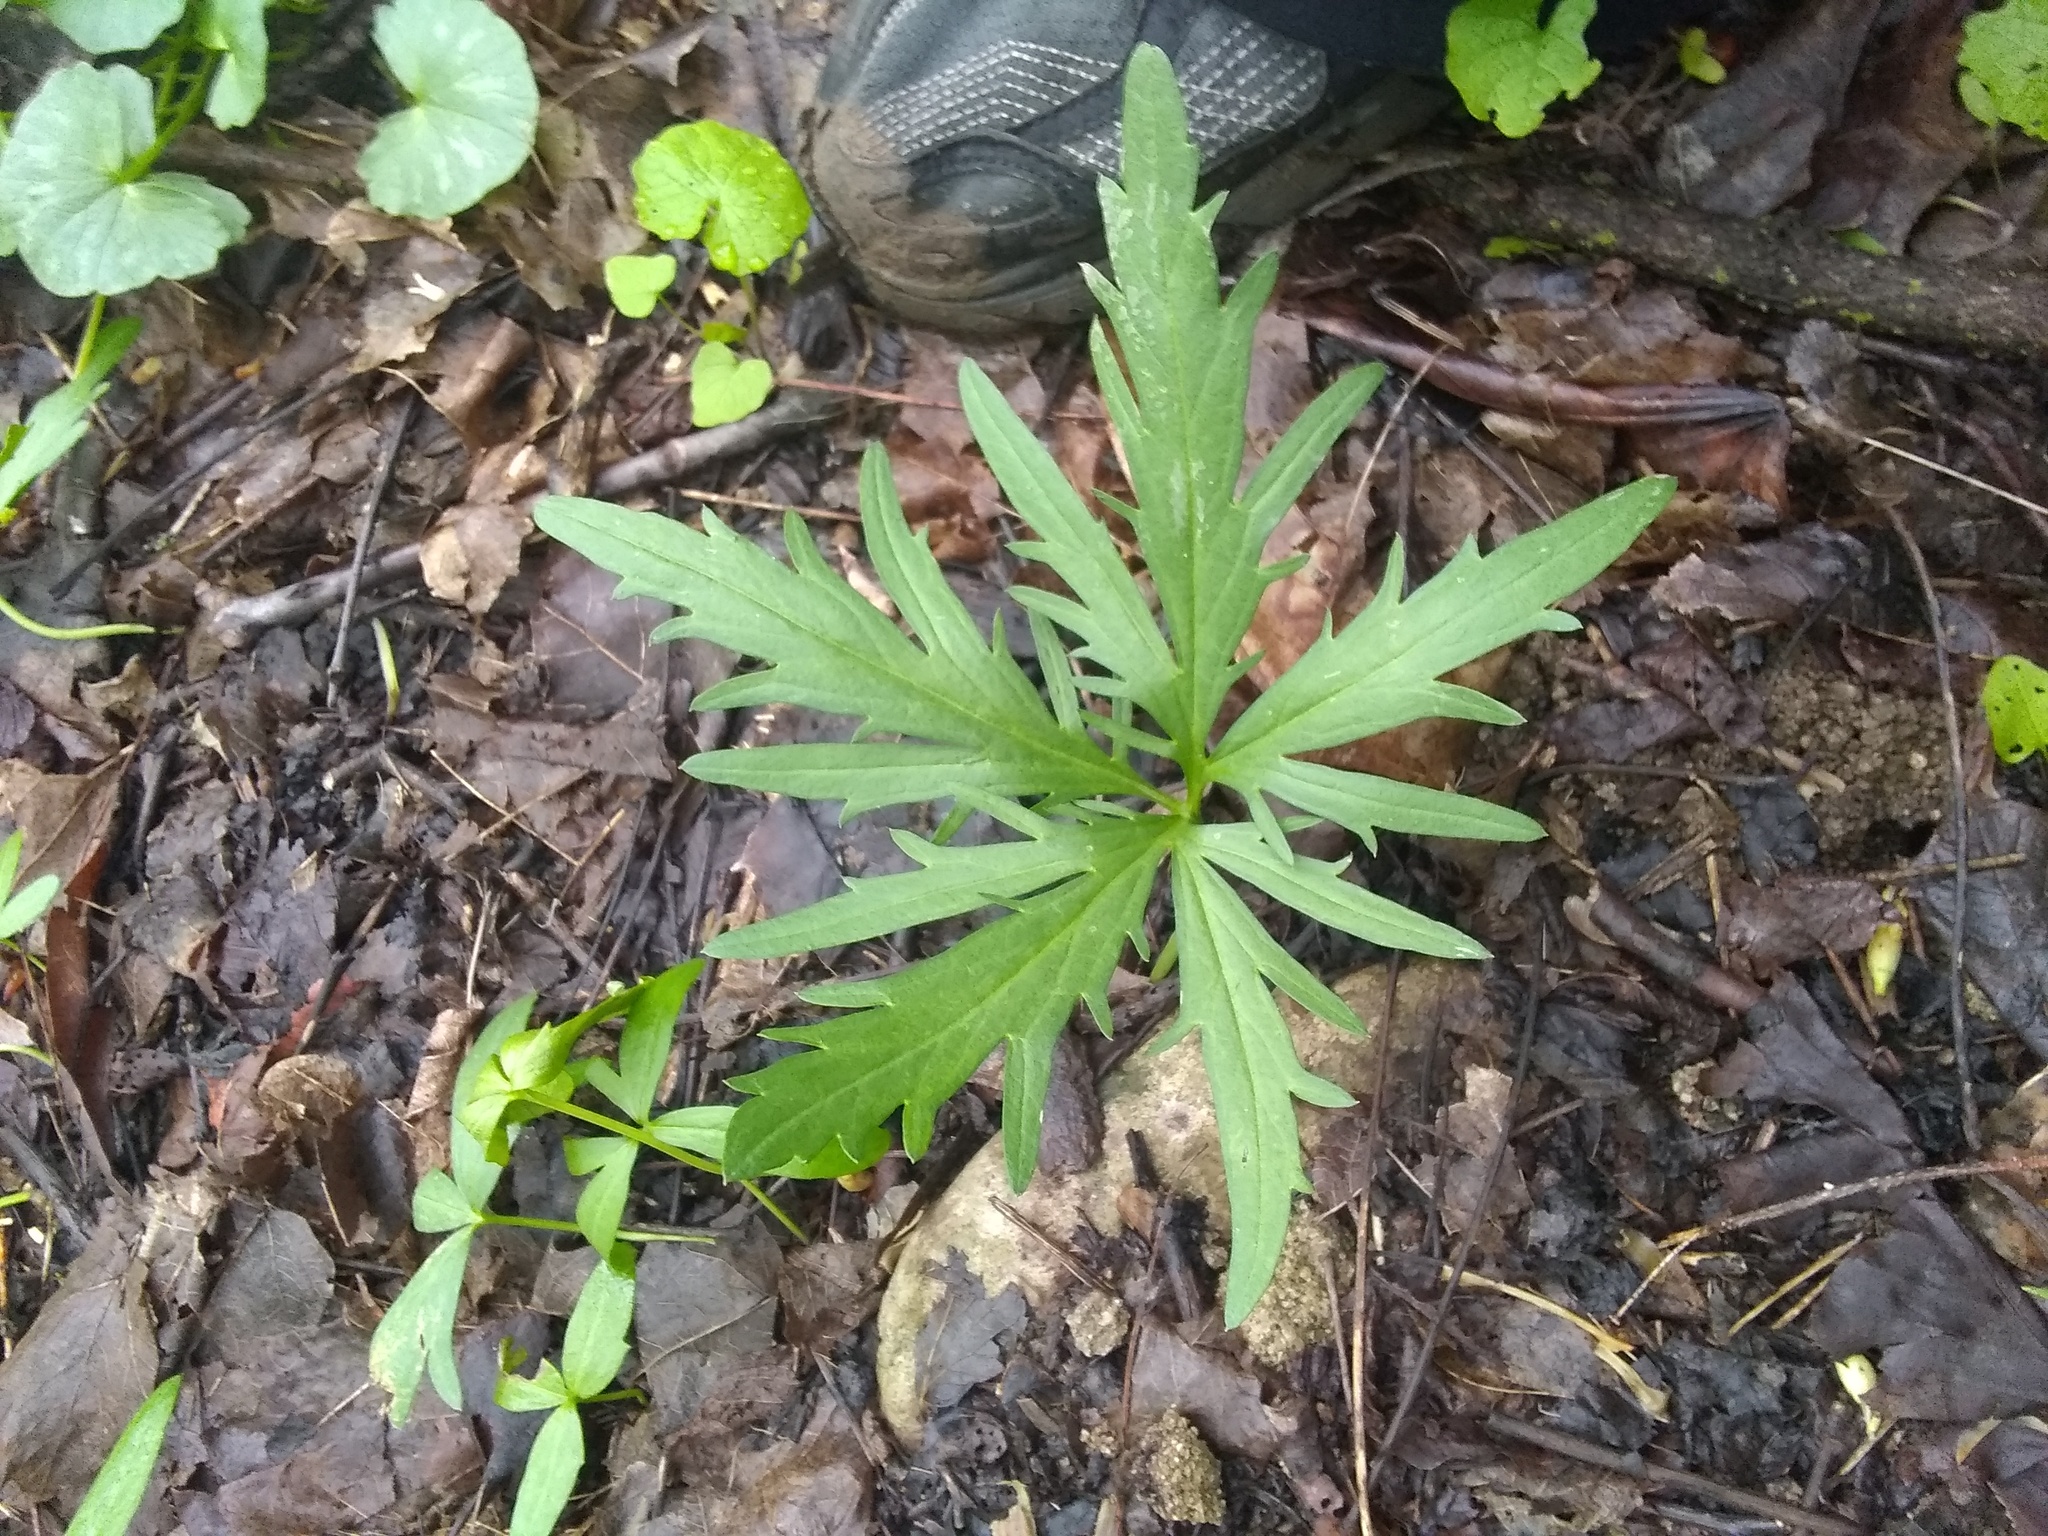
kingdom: Plantae
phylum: Tracheophyta
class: Magnoliopsida
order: Brassicales
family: Brassicaceae
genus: Cardamine
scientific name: Cardamine concatenata
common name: Cut-leaf toothcup
